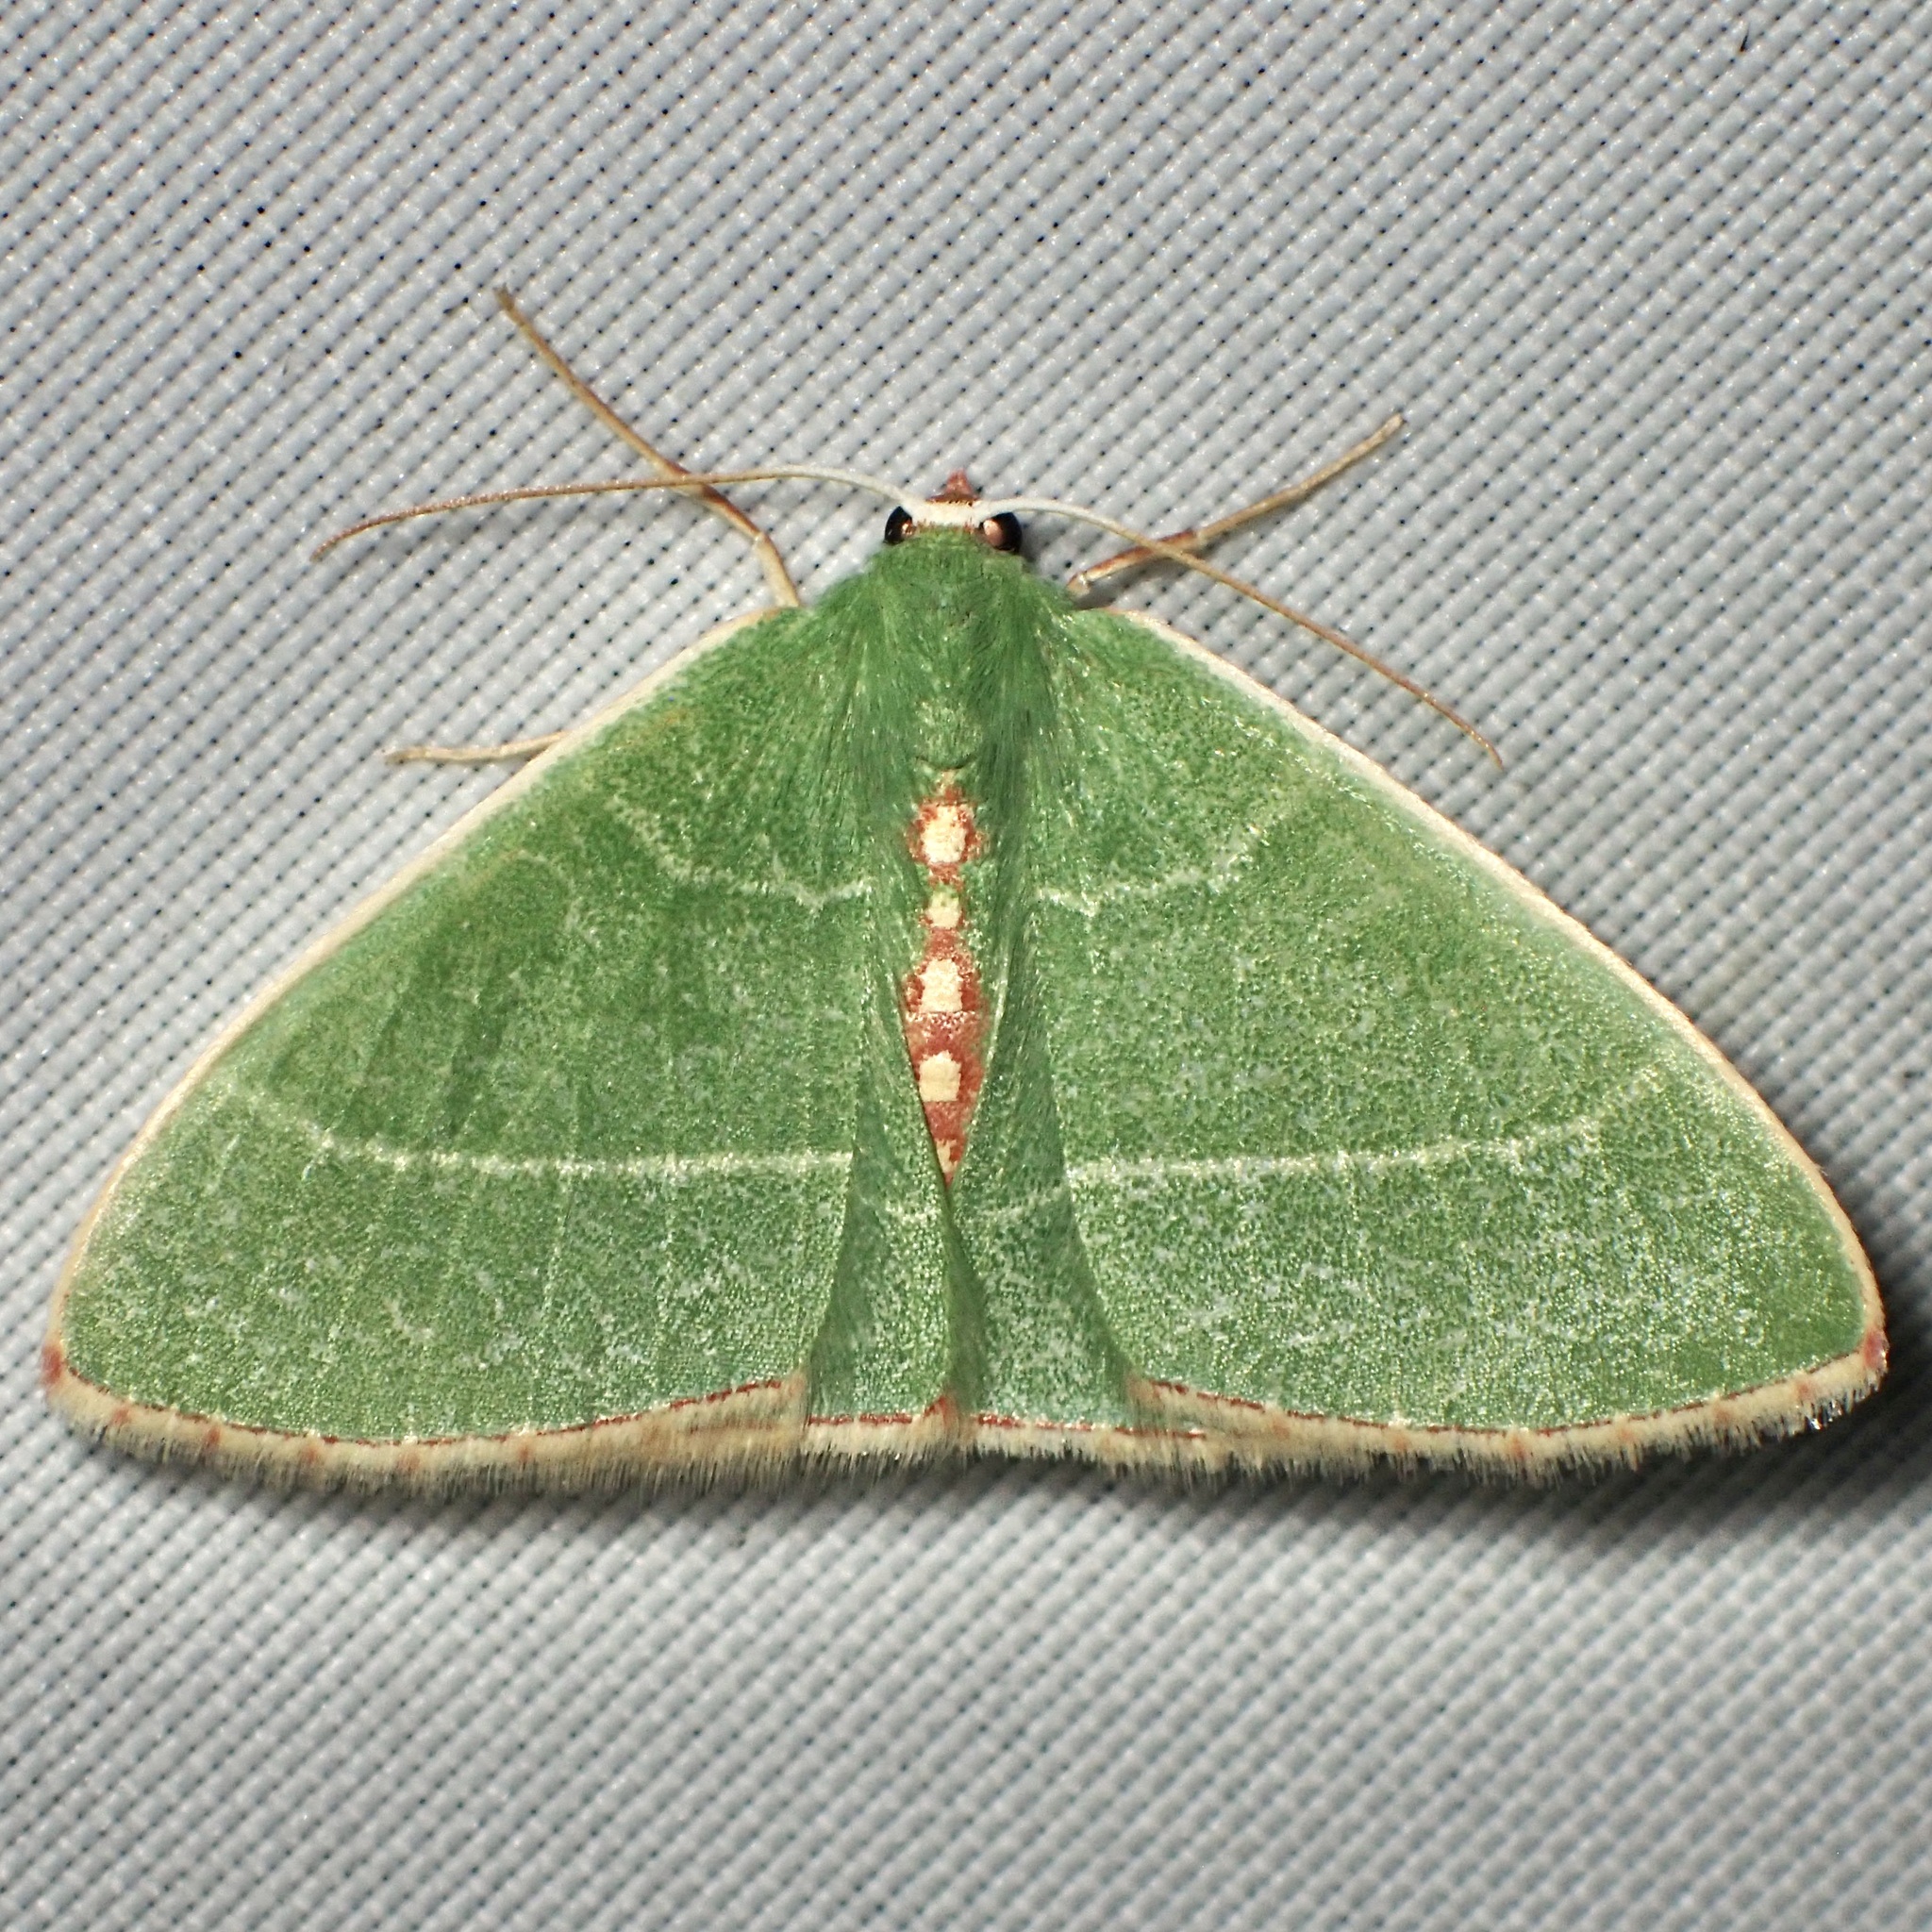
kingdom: Animalia
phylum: Arthropoda
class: Insecta
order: Lepidoptera
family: Geometridae
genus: Nemoria
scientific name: Nemoria festaria
